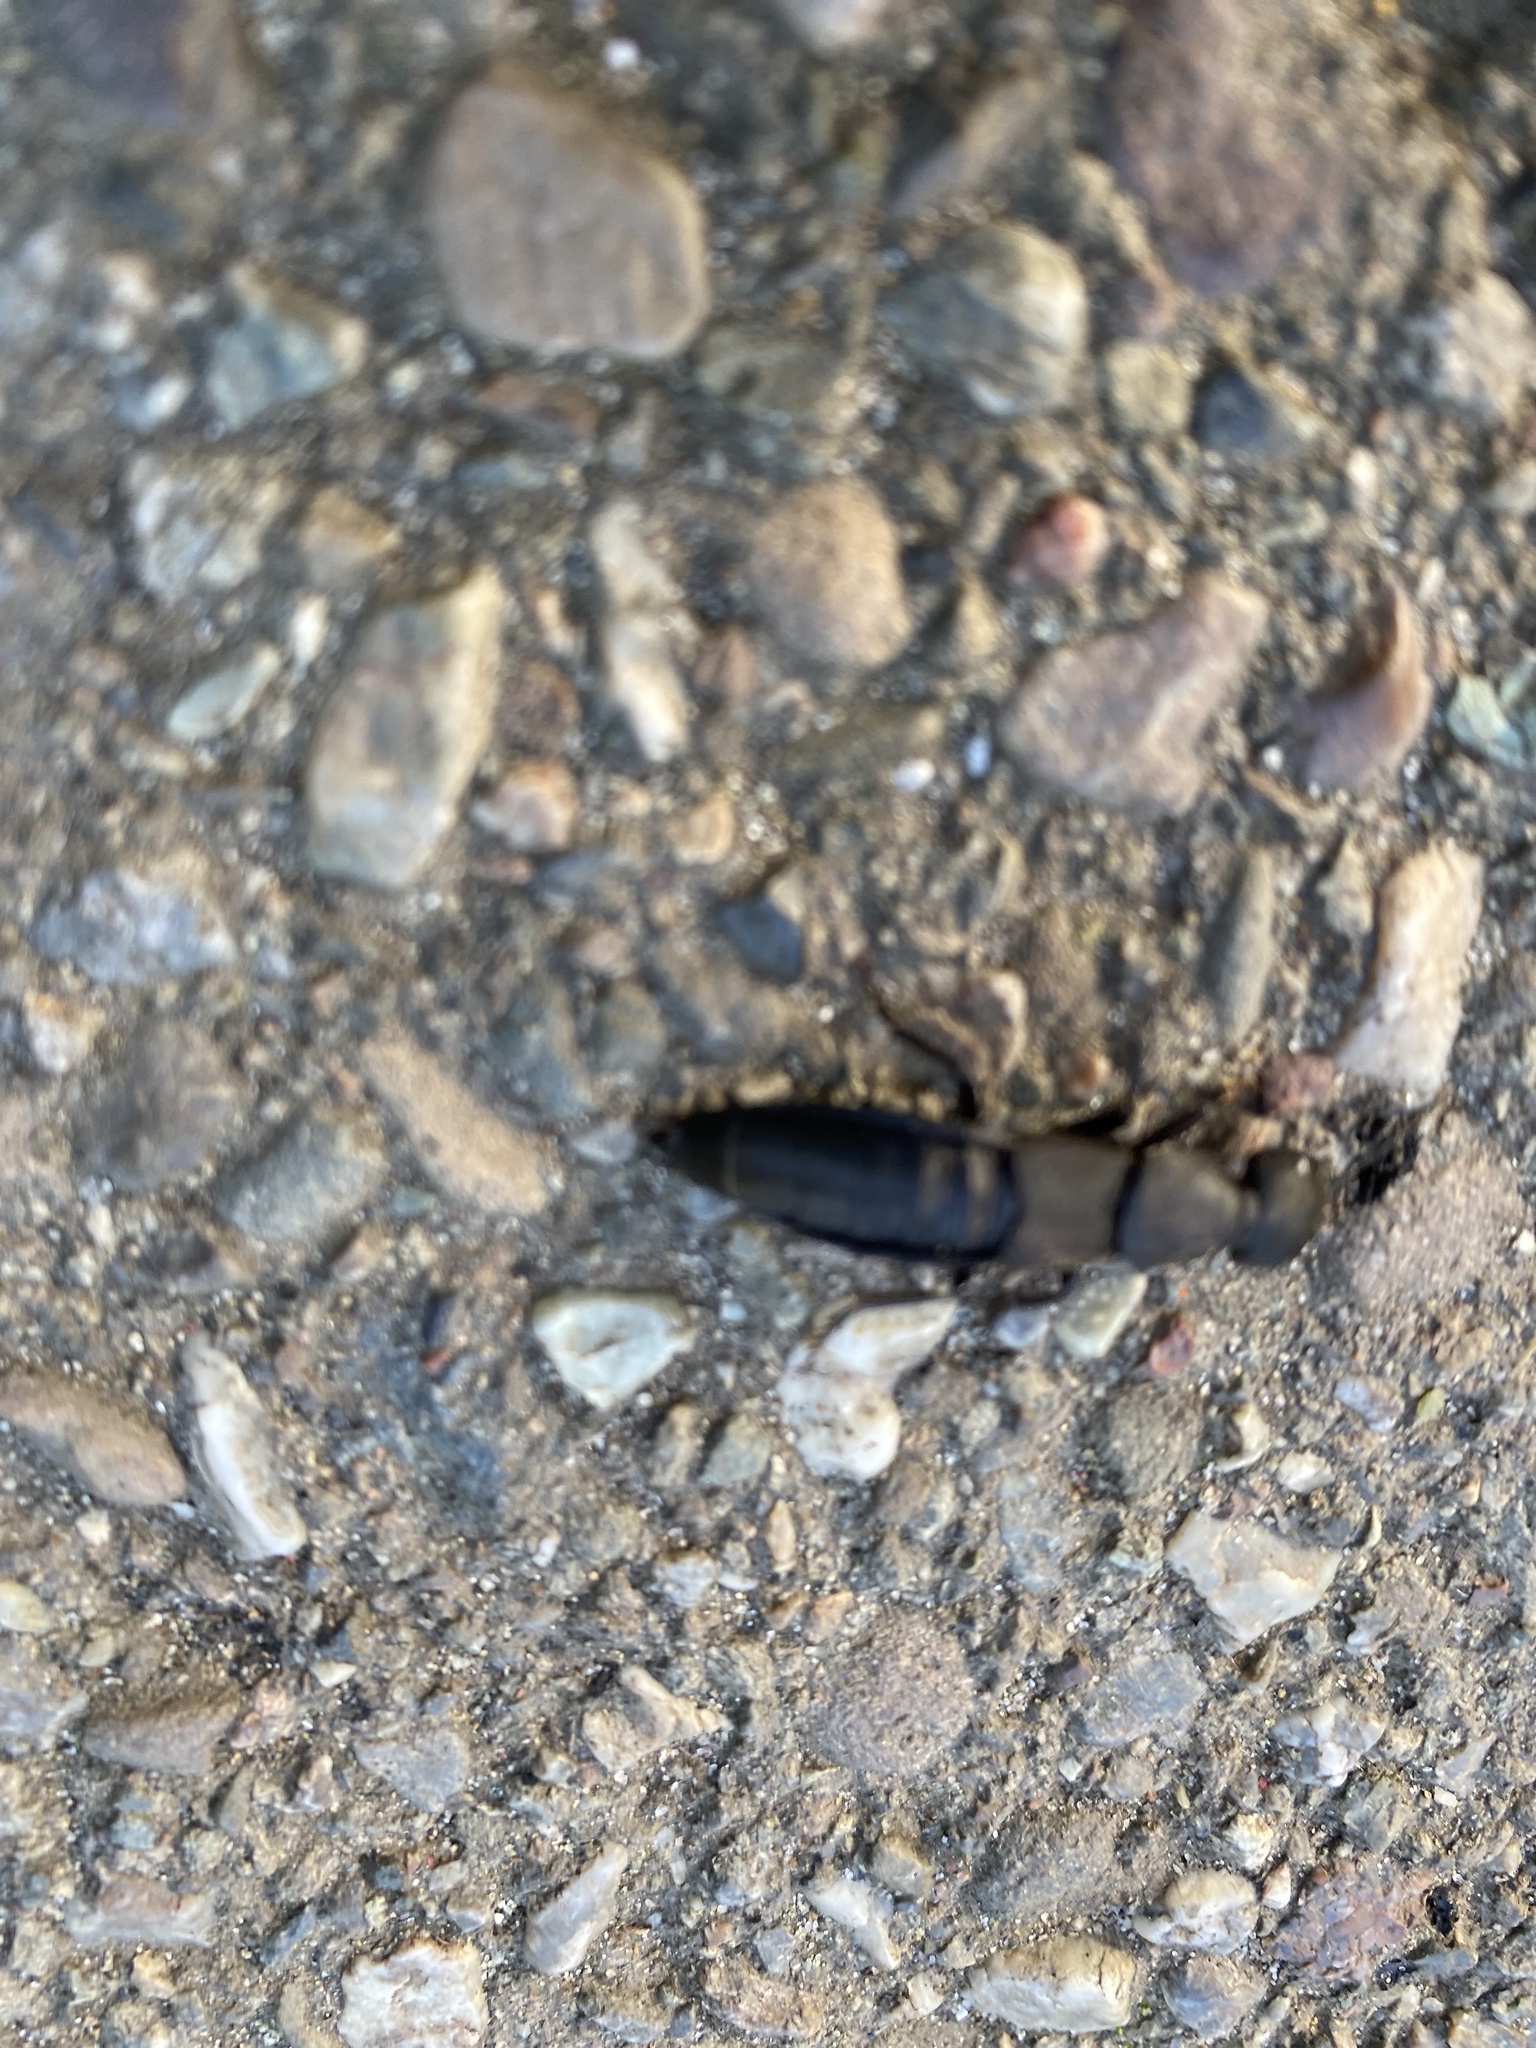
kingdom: Animalia
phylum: Arthropoda
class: Insecta
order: Coleoptera
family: Staphylinidae
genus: Ocypus
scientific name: Ocypus olens
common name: Devil's coach-horse
